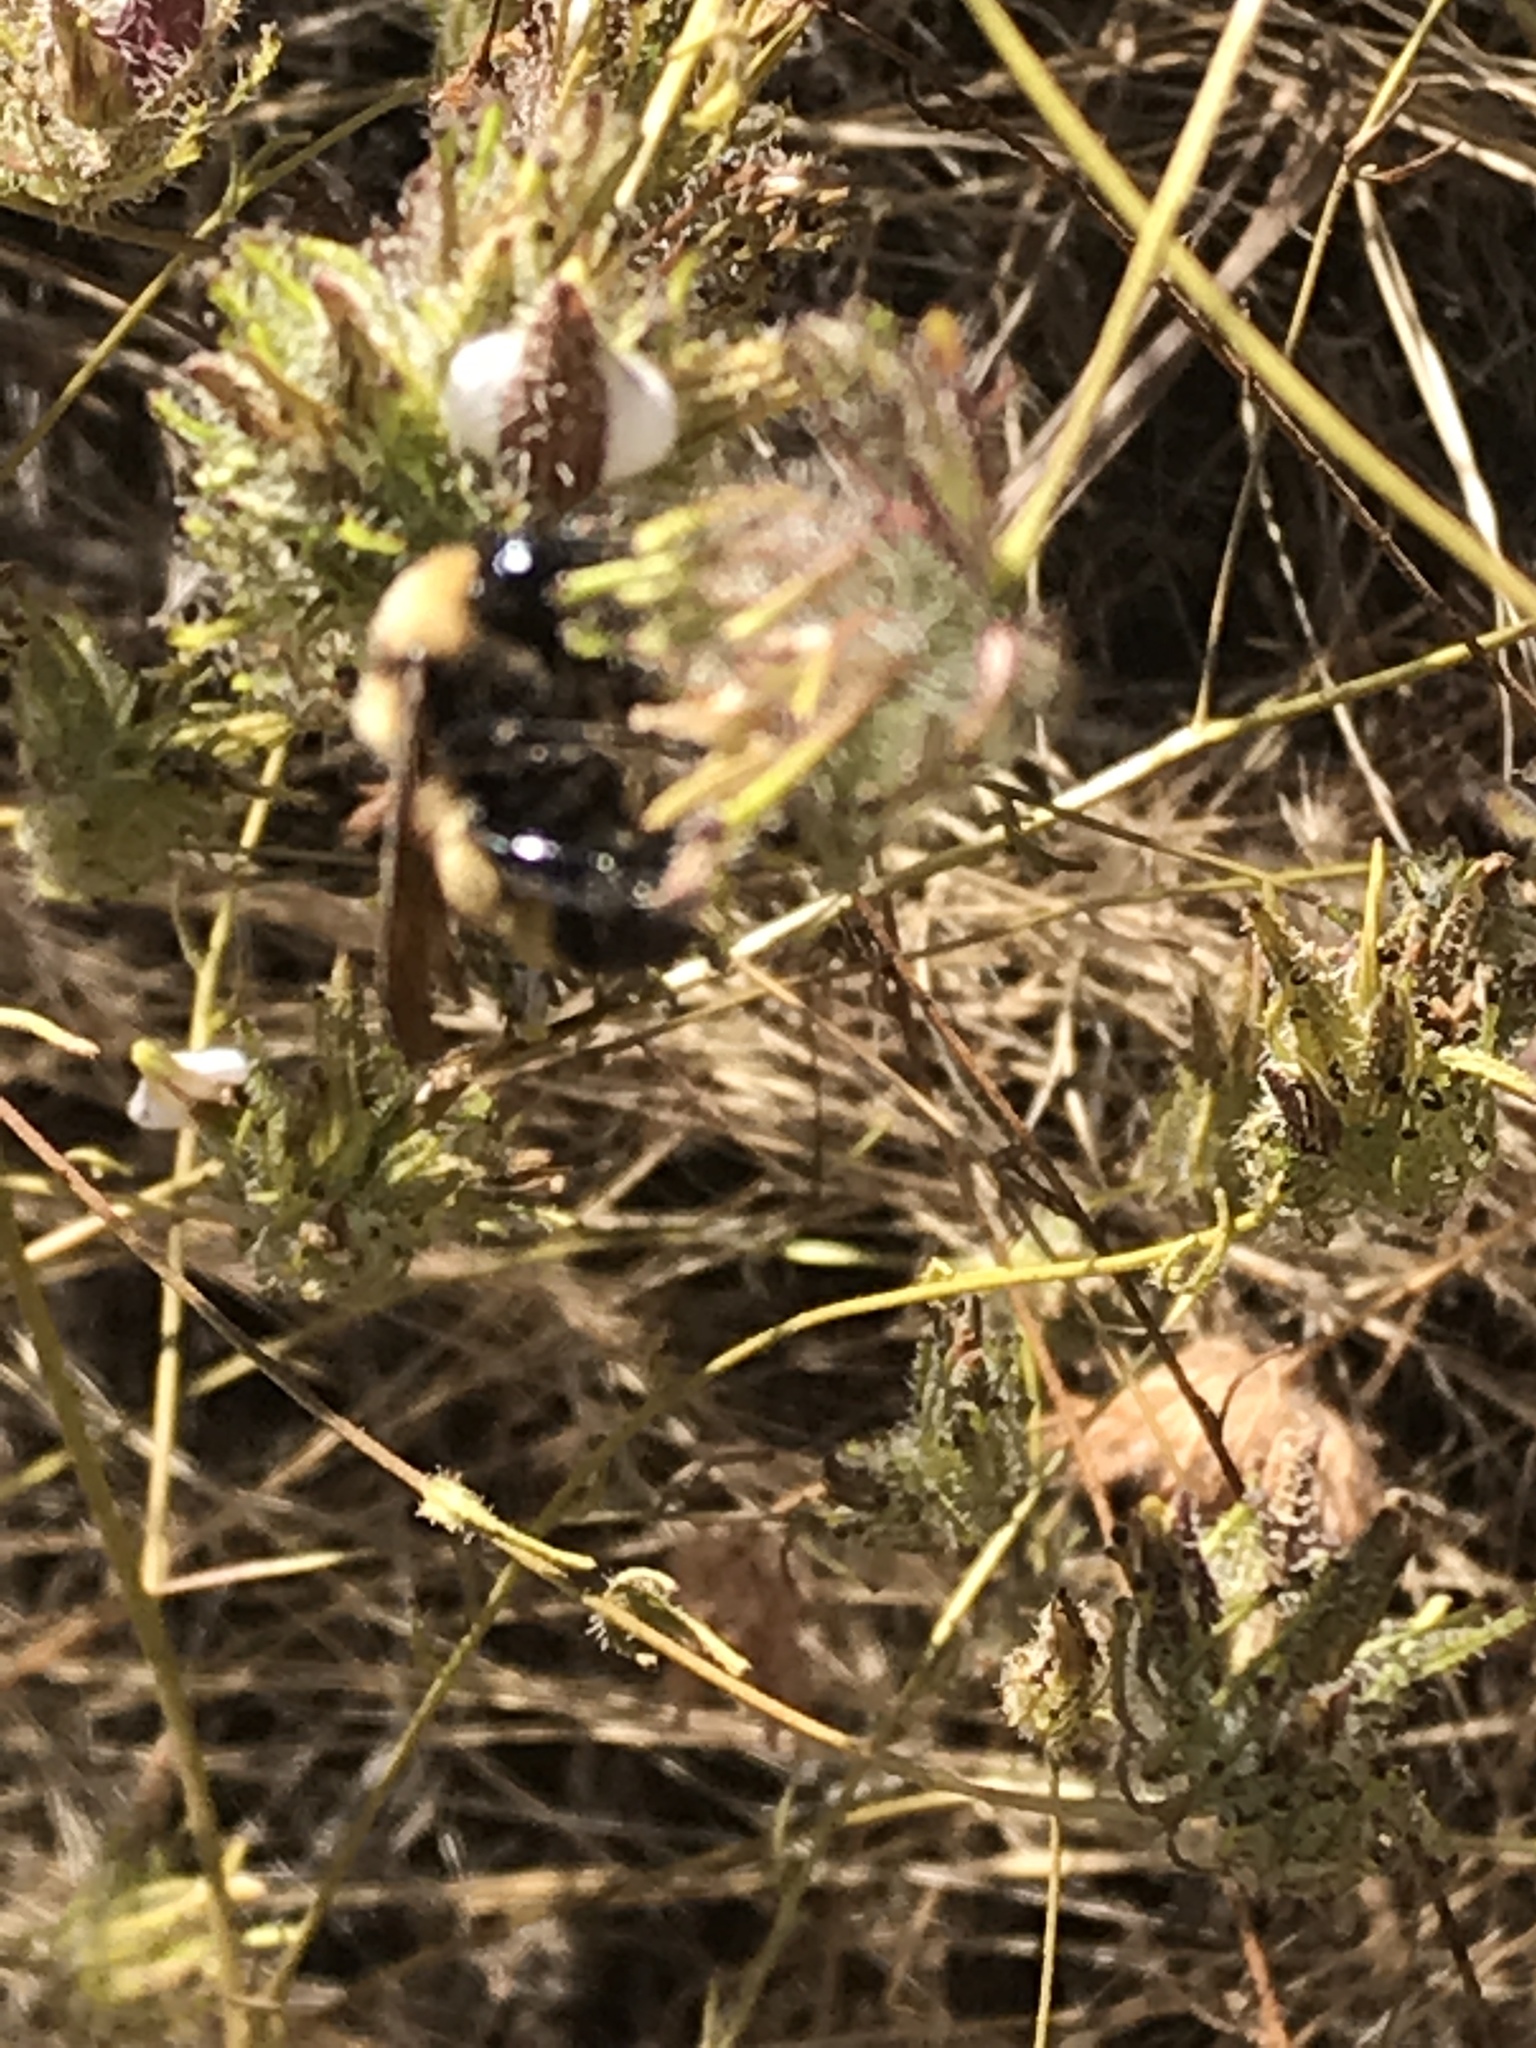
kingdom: Animalia
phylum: Arthropoda
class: Insecta
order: Hymenoptera
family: Apidae
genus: Bombus
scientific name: Bombus sonorus
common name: Sonoran bumble bee
